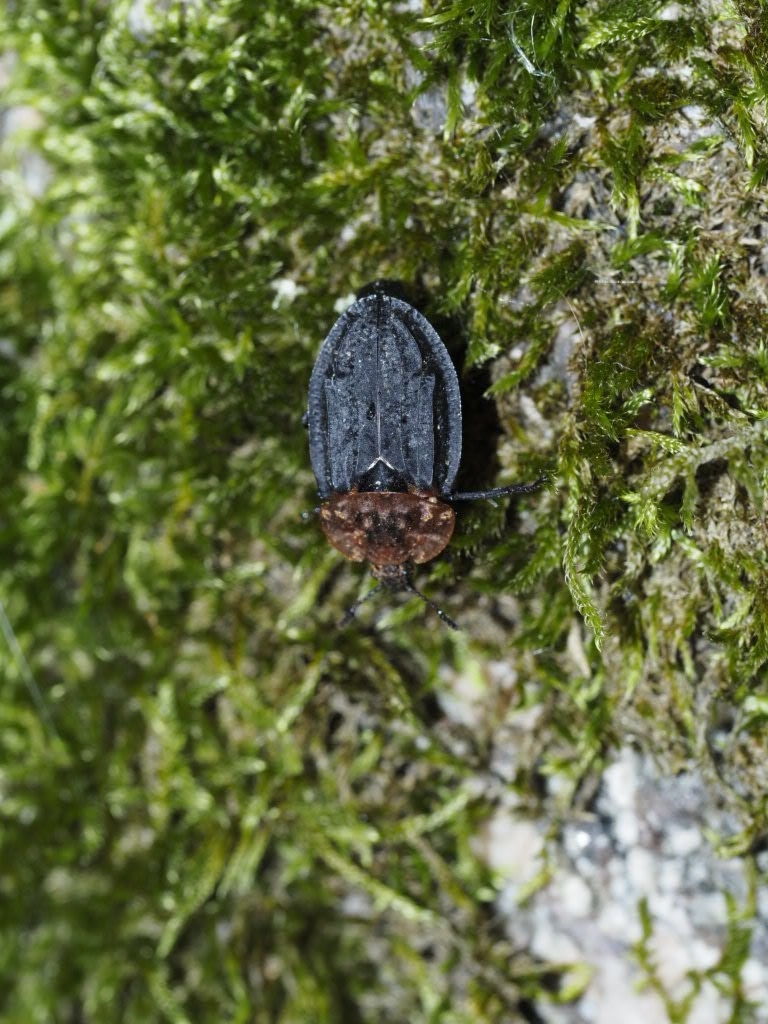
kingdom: Animalia
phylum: Arthropoda
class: Insecta
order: Coleoptera
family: Staphylinidae
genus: Oiceoptoma
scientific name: Oiceoptoma thoracicum
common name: Red-breasted carrion beetle
